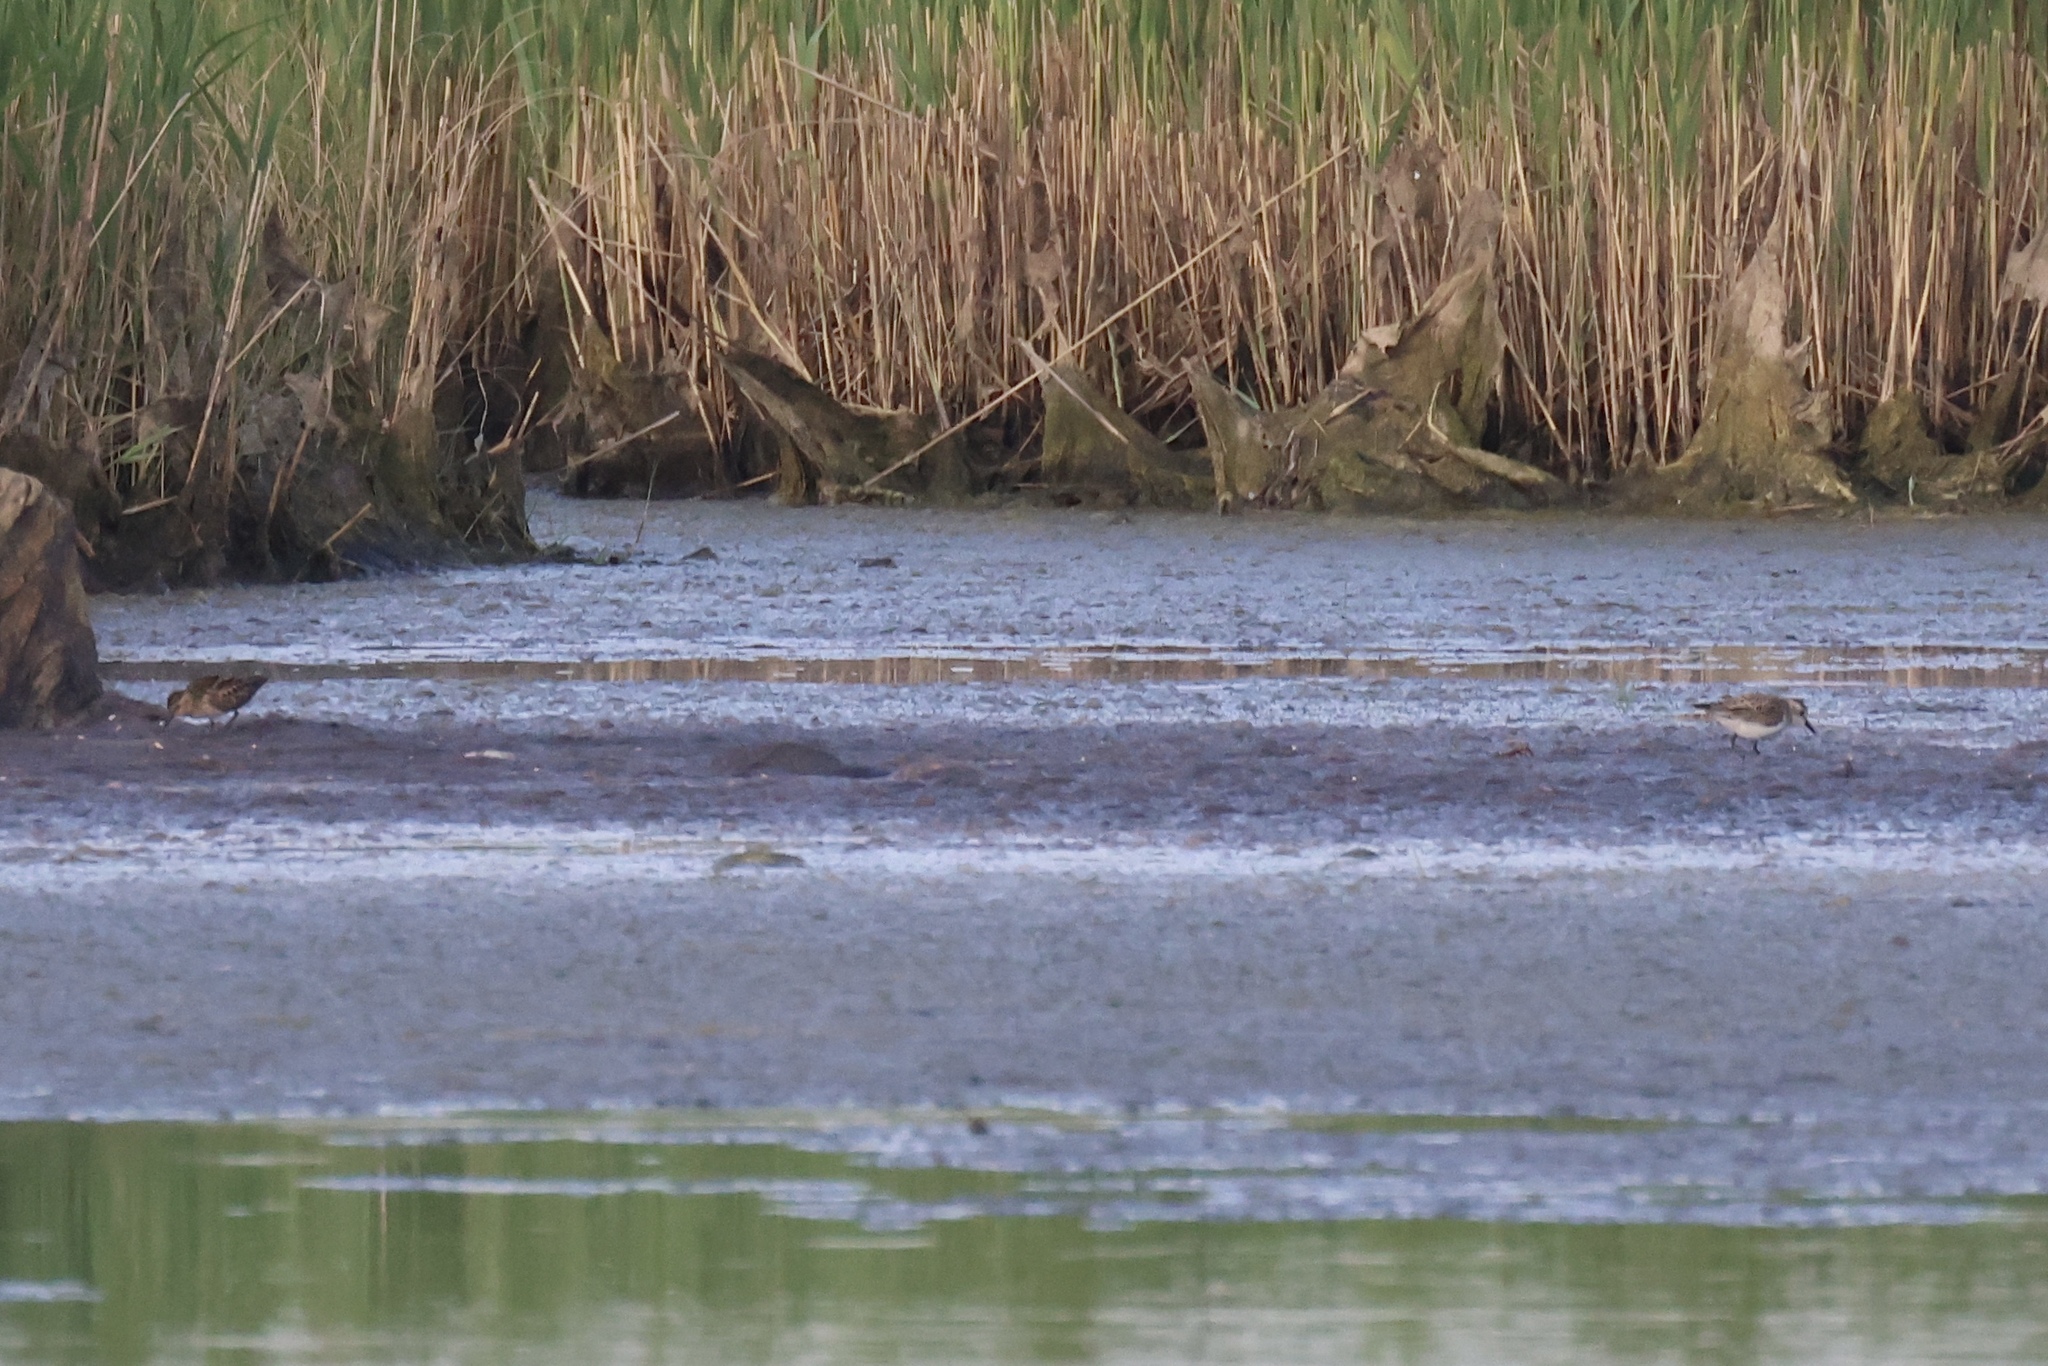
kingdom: Animalia
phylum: Chordata
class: Aves
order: Charadriiformes
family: Scolopacidae
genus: Calidris
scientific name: Calidris pusilla
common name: Semipalmated sandpiper
